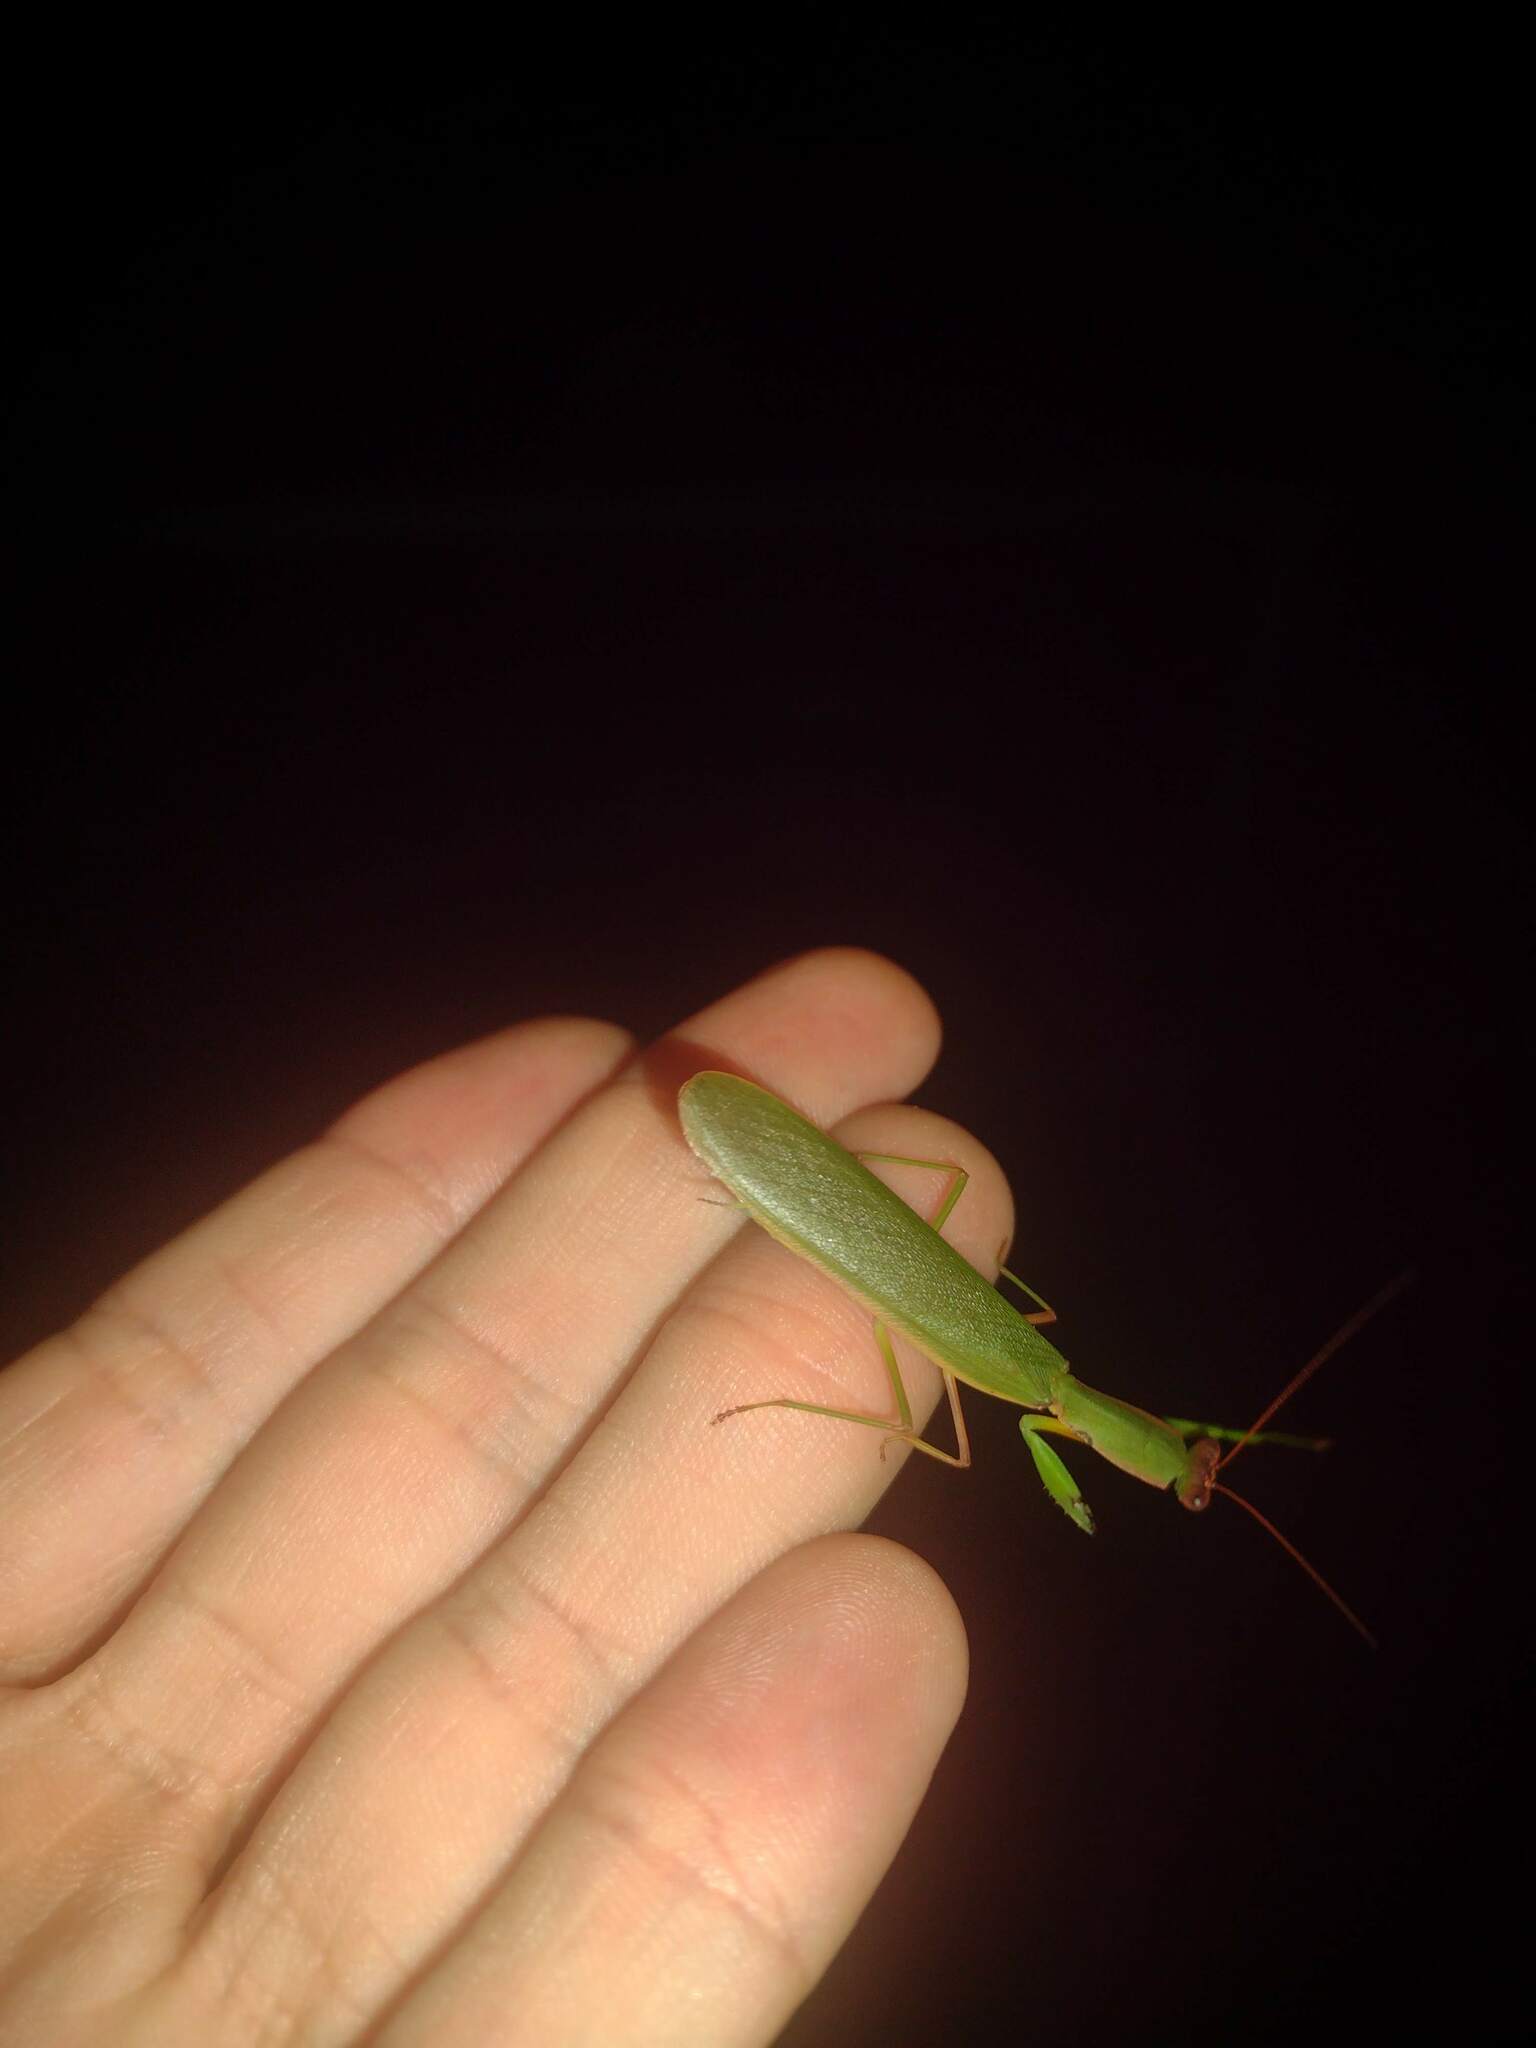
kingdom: Animalia
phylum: Arthropoda
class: Insecta
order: Mantodea
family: Mantidae
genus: Orthodera
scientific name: Orthodera ministralis
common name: Mantis
